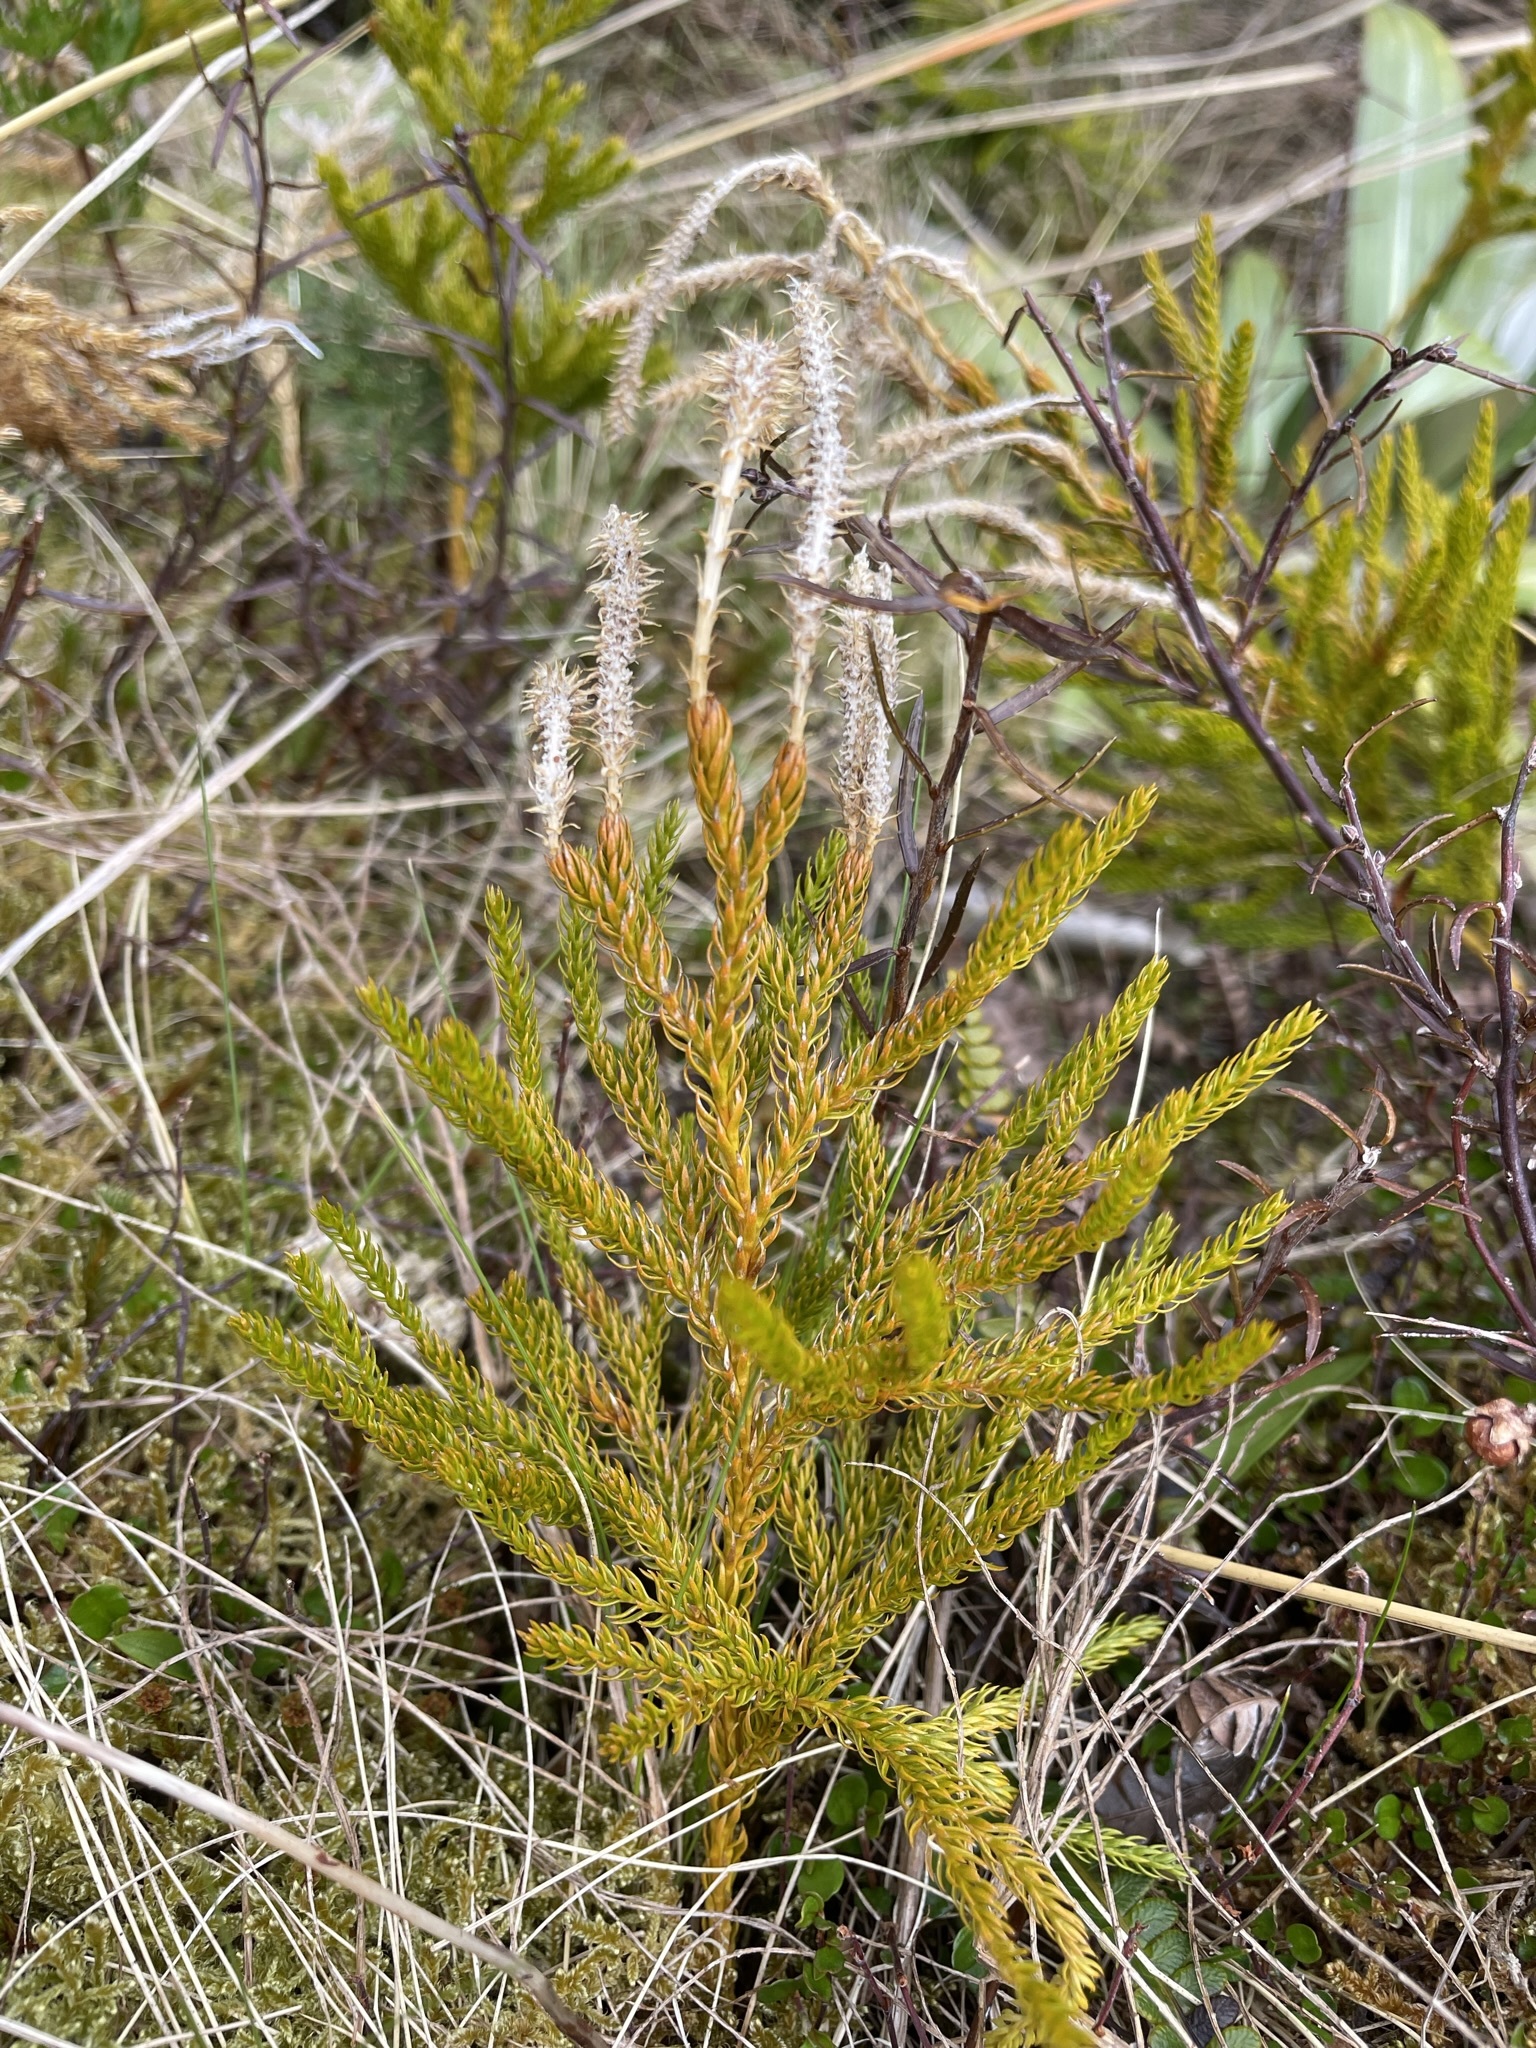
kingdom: Plantae
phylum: Tracheophyta
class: Lycopodiopsida
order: Lycopodiales
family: Lycopodiaceae
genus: Austrolycopodium
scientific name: Austrolycopodium fastigiatum
